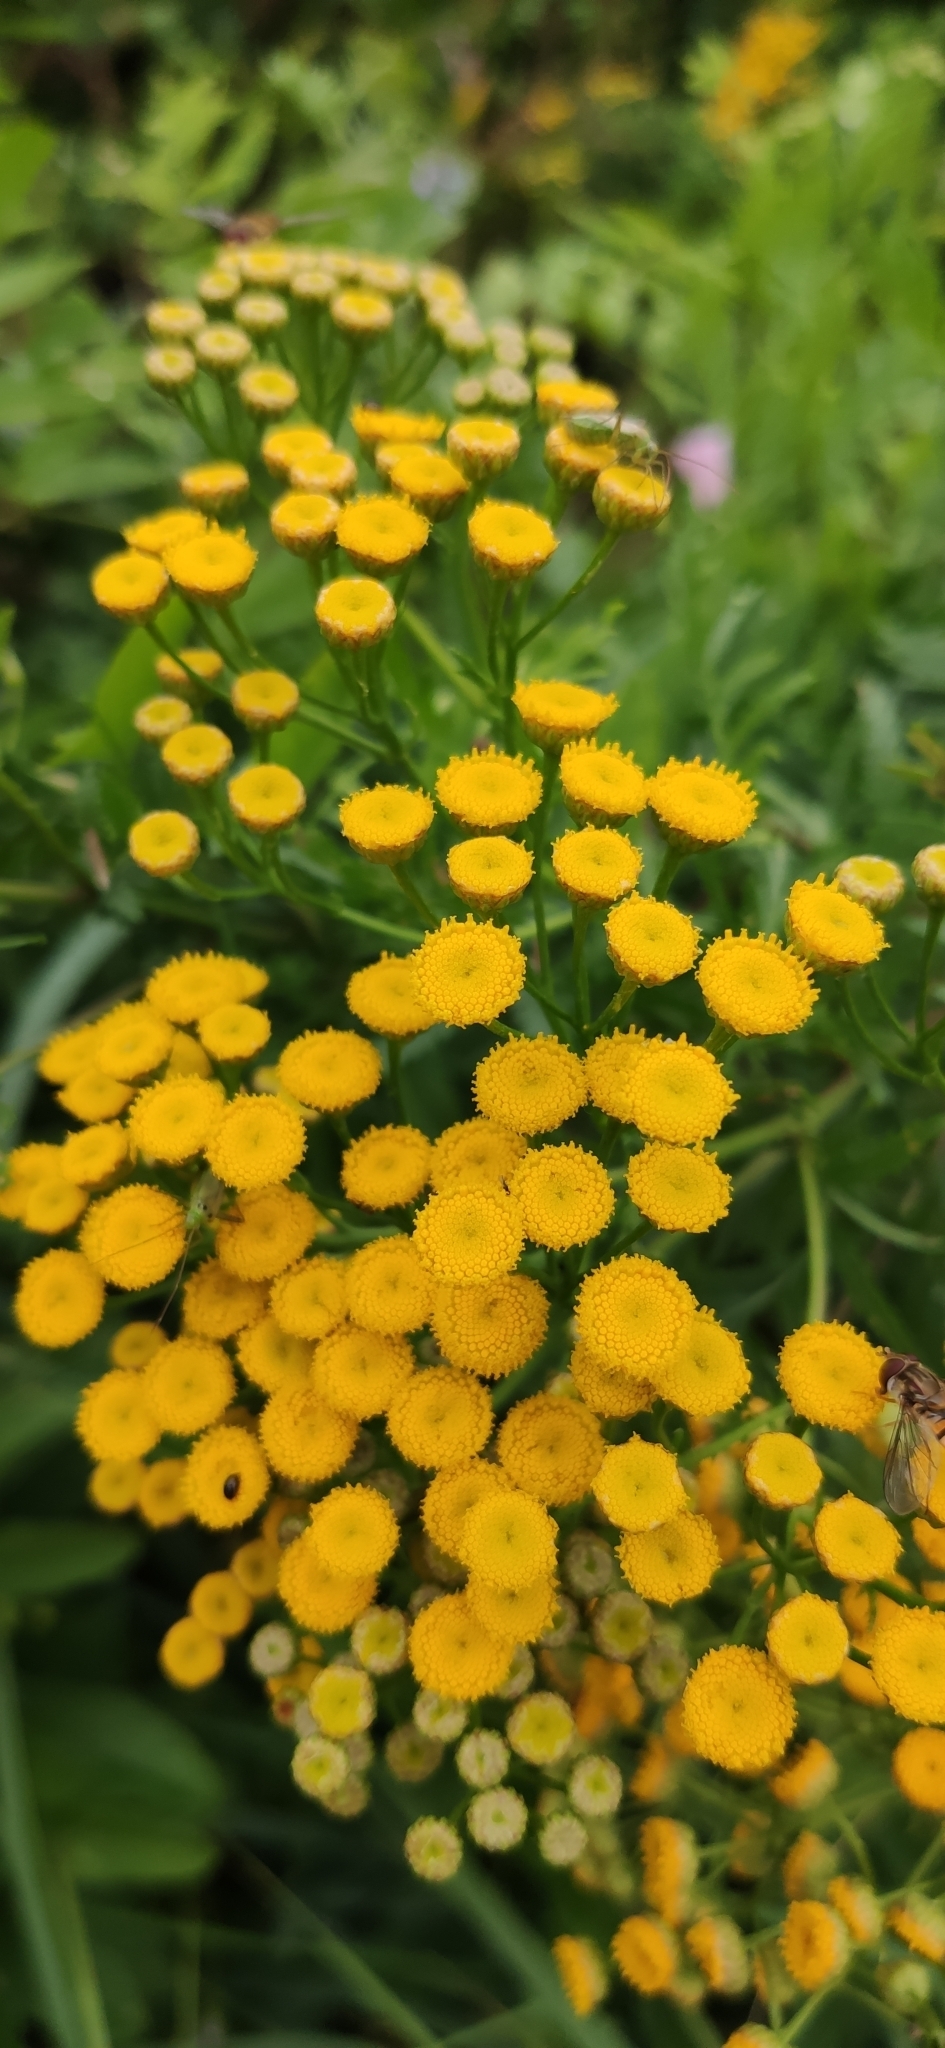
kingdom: Plantae
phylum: Tracheophyta
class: Magnoliopsida
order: Asterales
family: Asteraceae
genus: Tanacetum
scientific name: Tanacetum vulgare
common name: Common tansy
